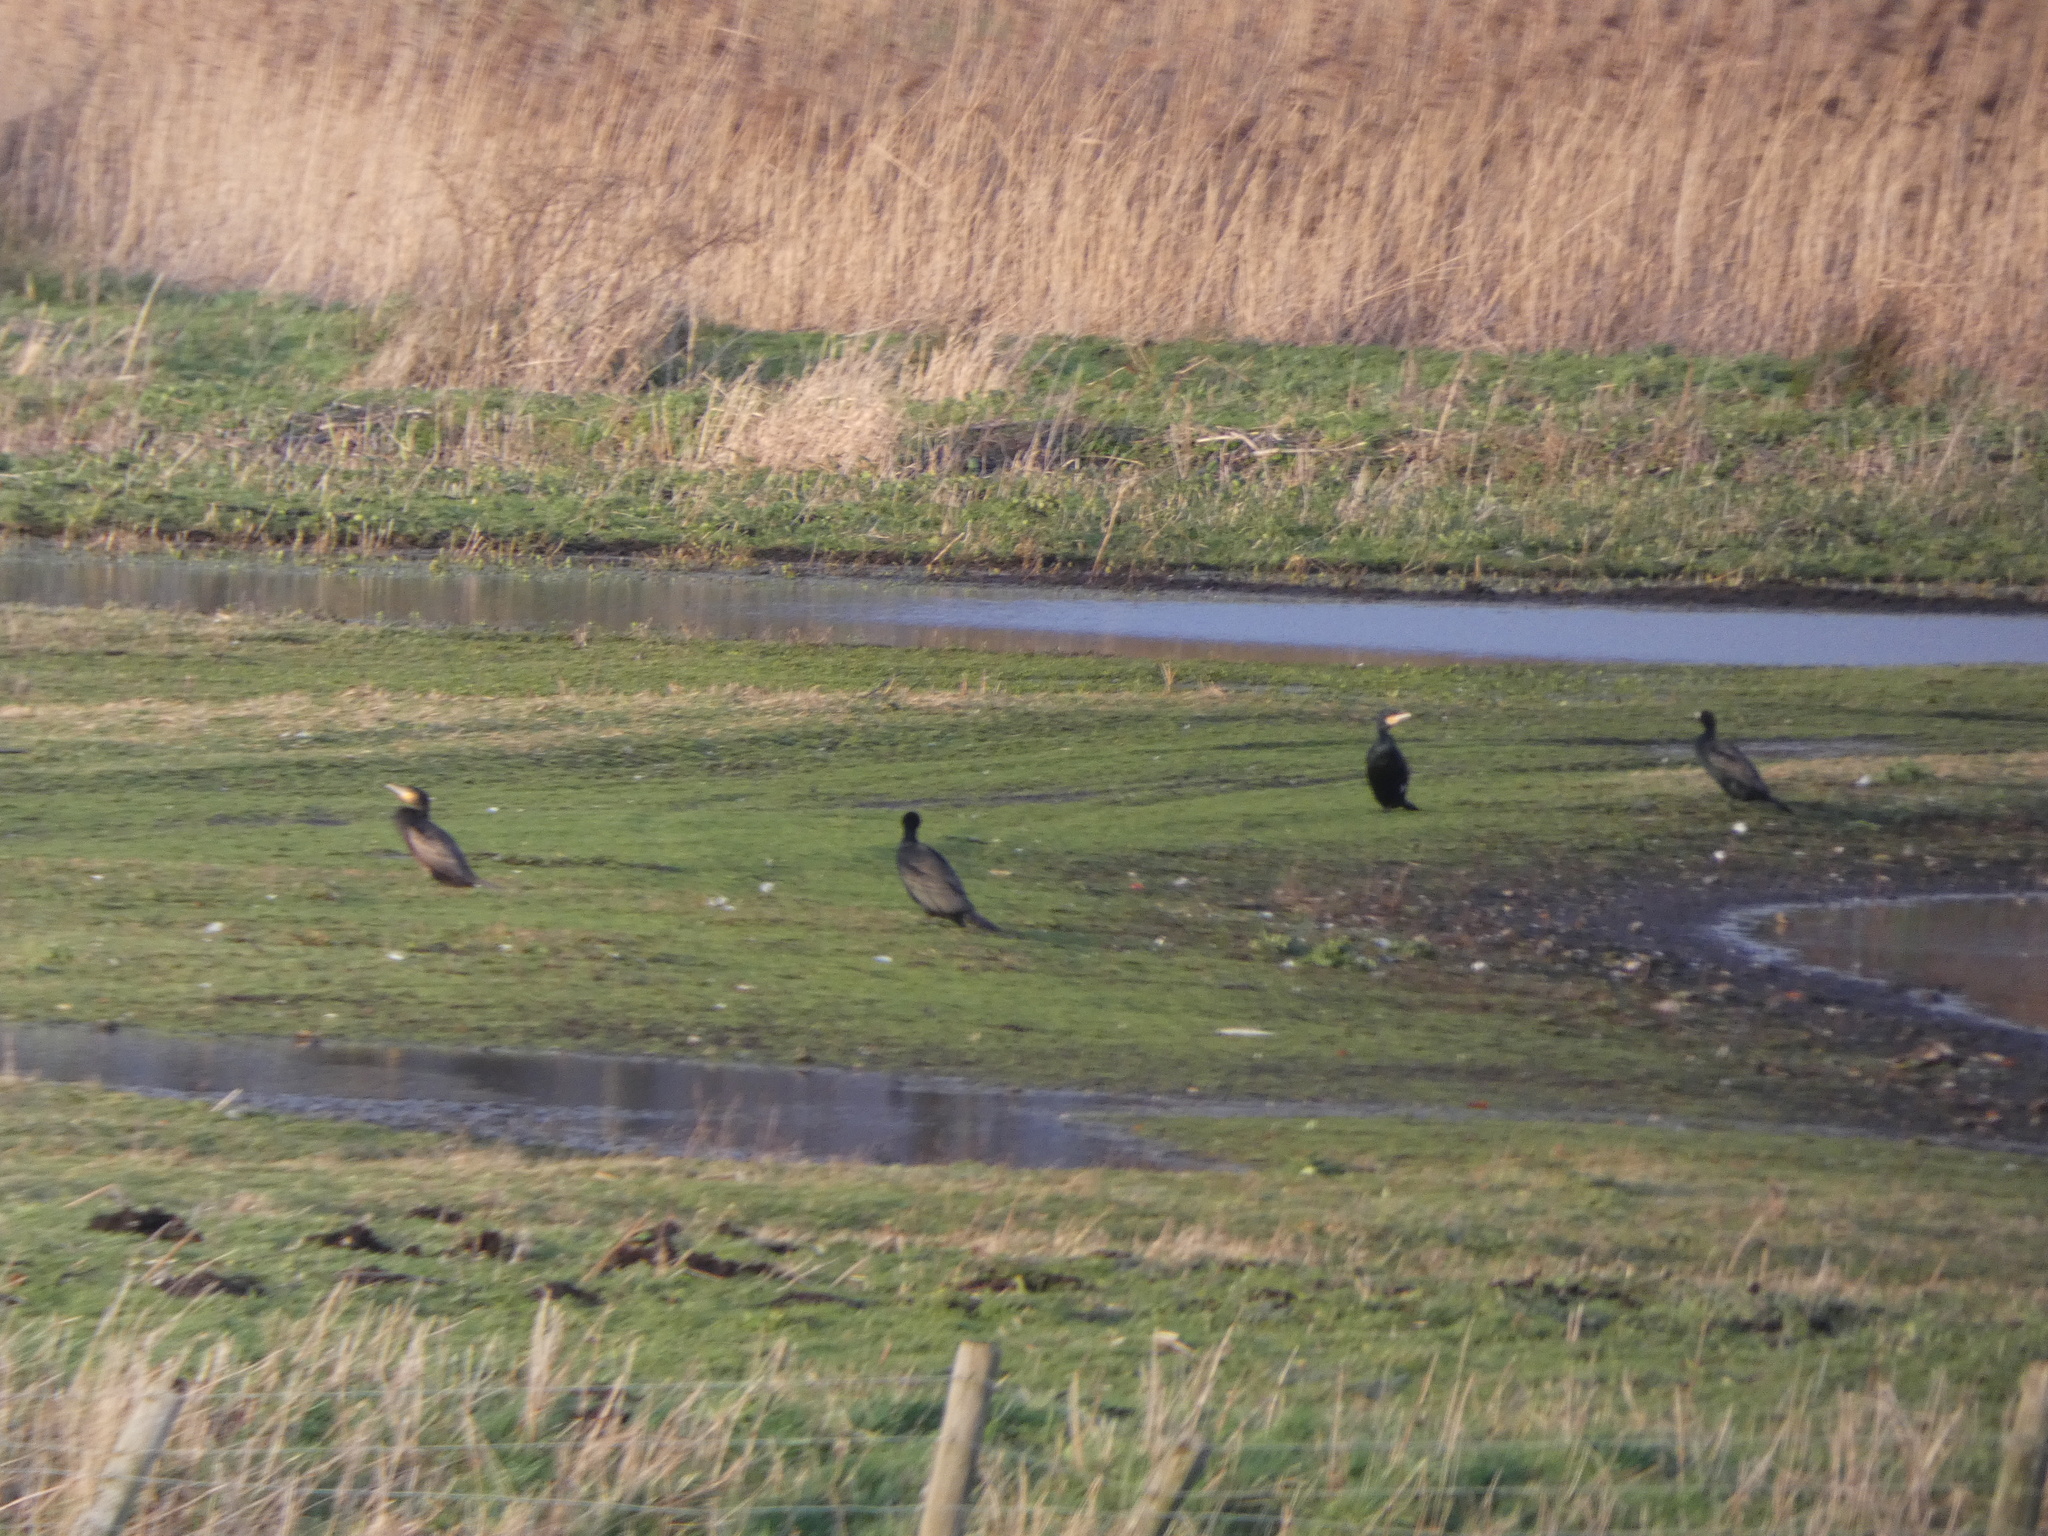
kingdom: Animalia
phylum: Chordata
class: Aves
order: Suliformes
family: Phalacrocoracidae
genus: Phalacrocorax
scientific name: Phalacrocorax carbo
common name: Great cormorant
